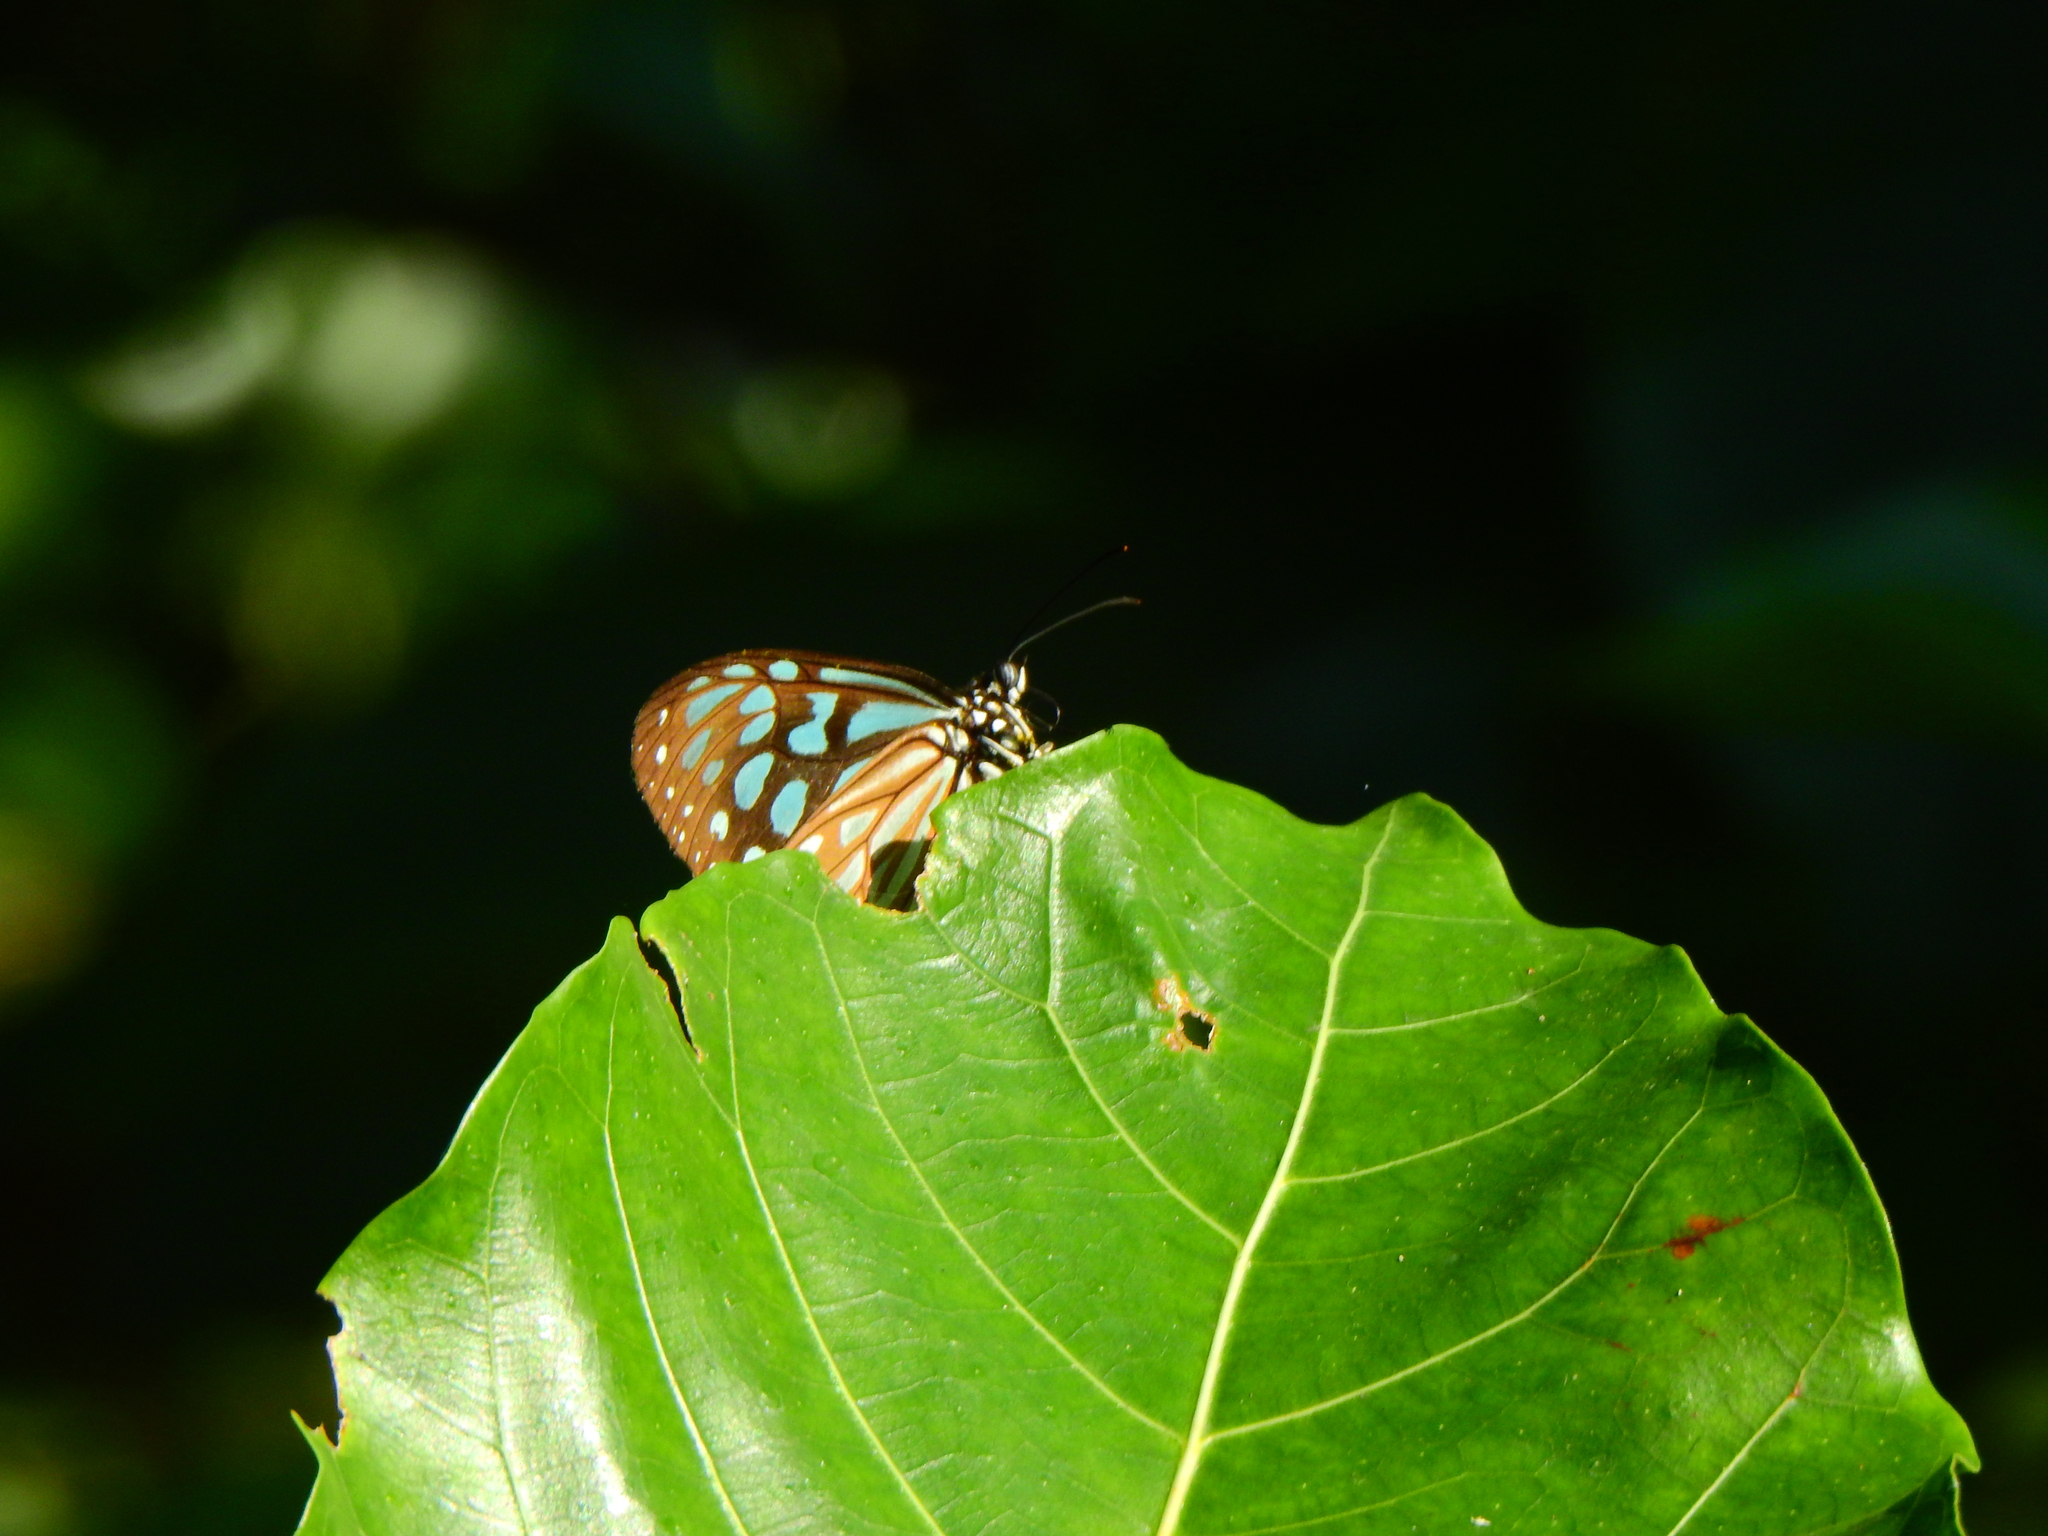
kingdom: Animalia
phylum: Arthropoda
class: Insecta
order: Lepidoptera
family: Nymphalidae
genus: Ideopsis
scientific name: Ideopsis similis
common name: Ceylon blue glassy tiger
